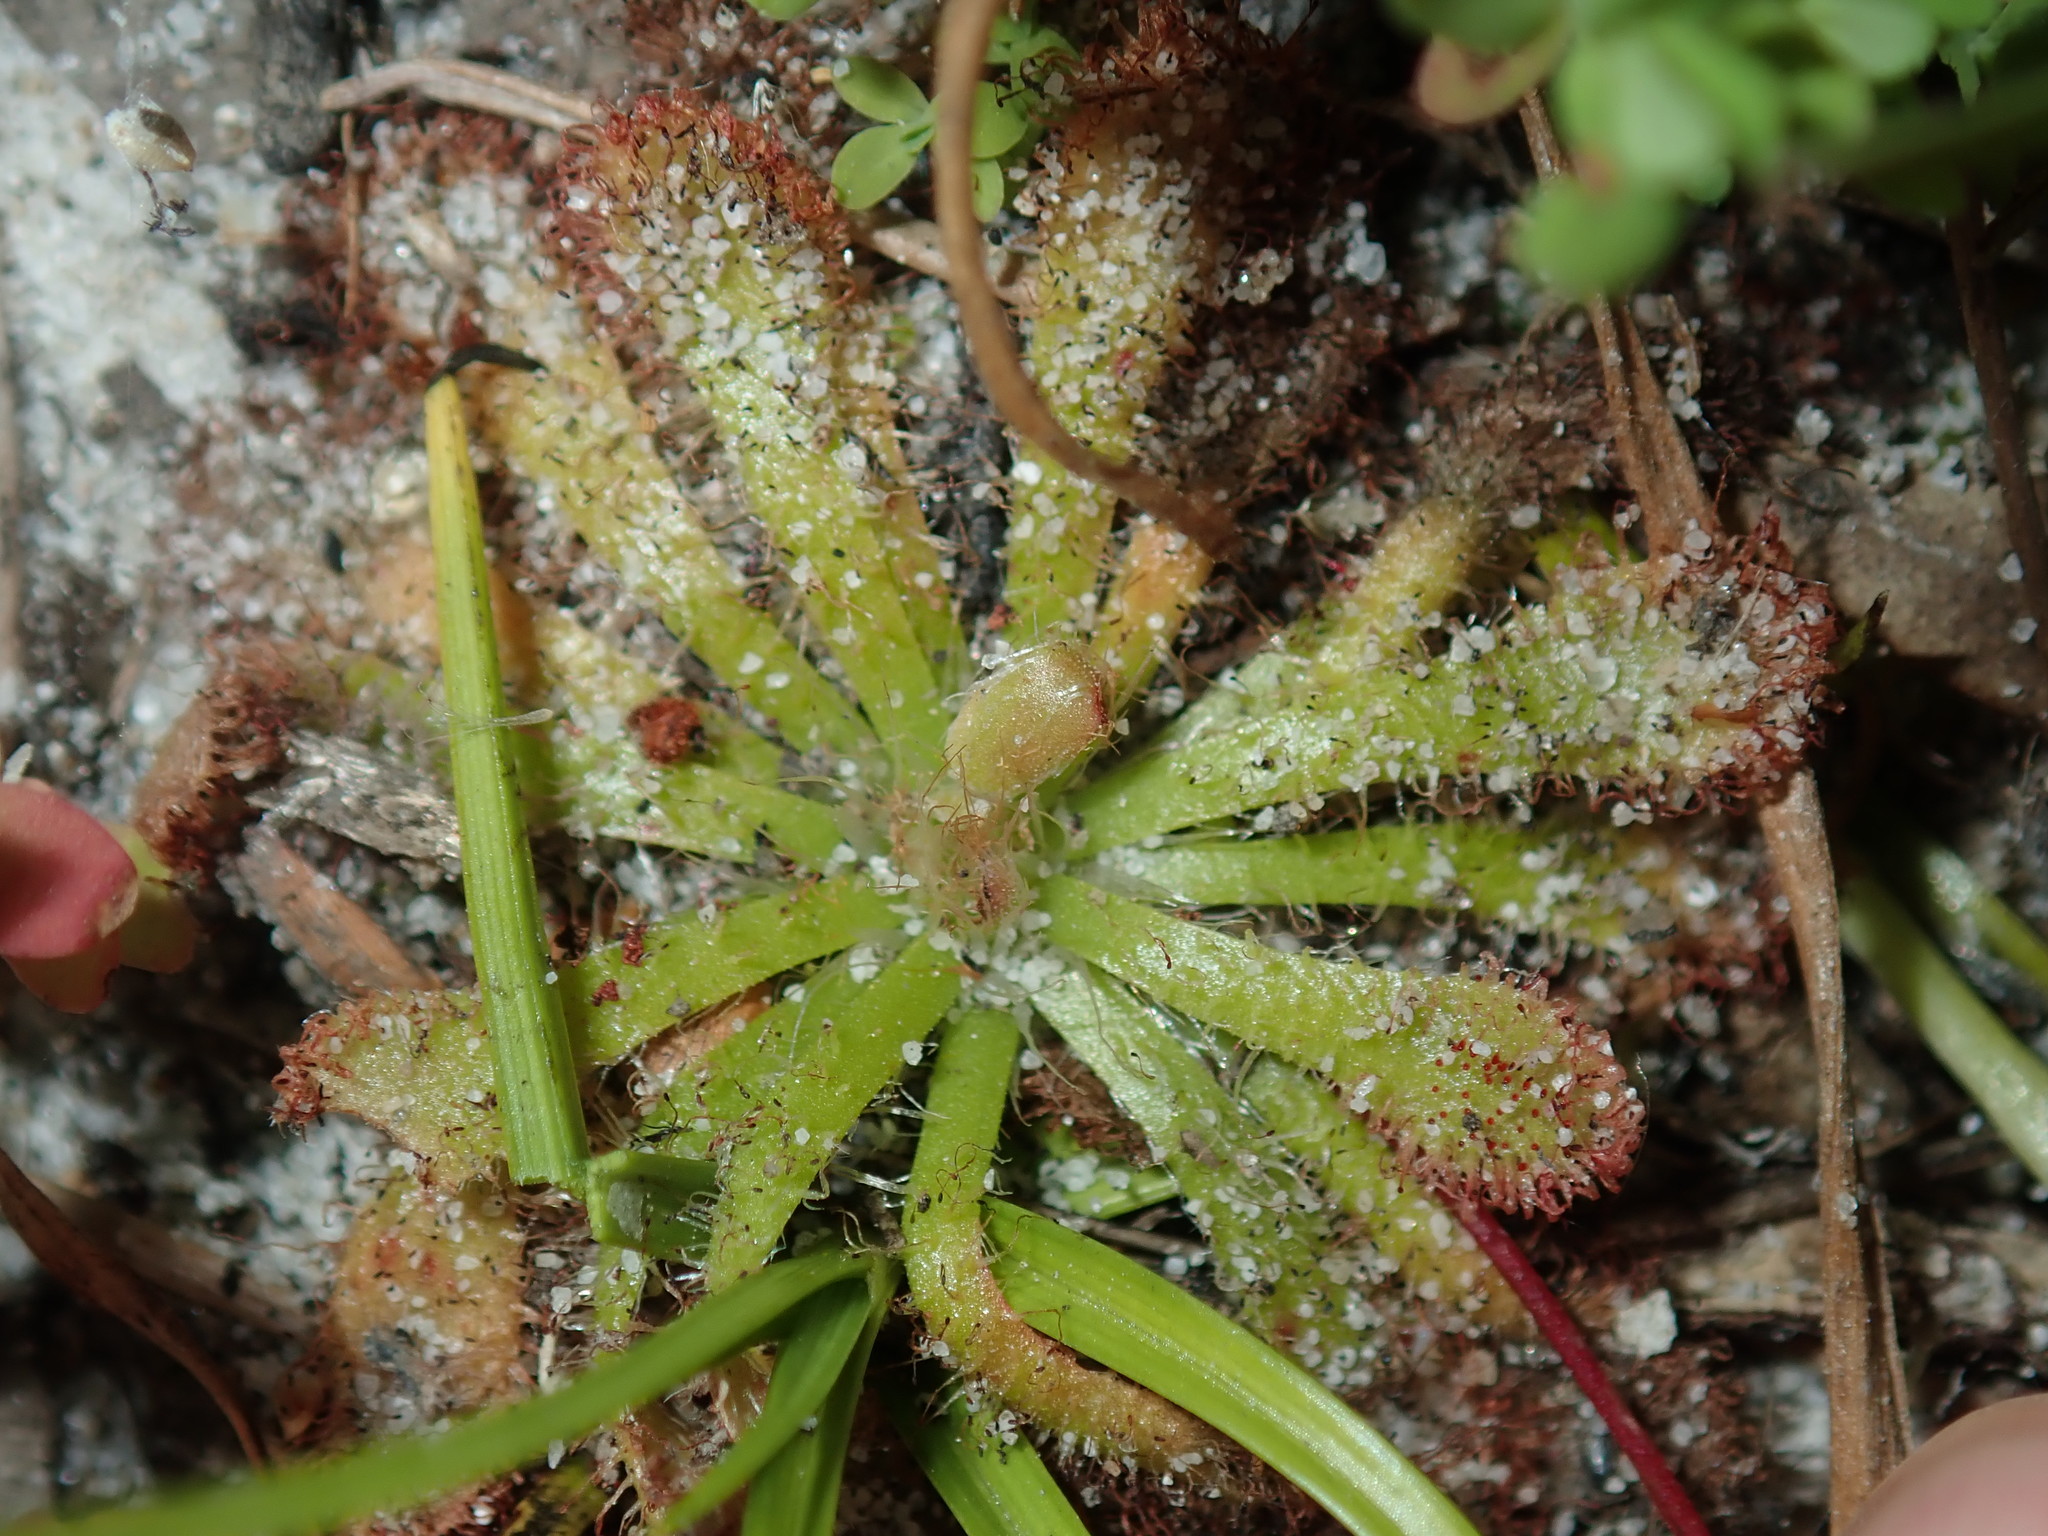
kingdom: Plantae
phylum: Tracheophyta
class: Magnoliopsida
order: Caryophyllales
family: Droseraceae
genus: Drosera
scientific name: Drosera spatulata
